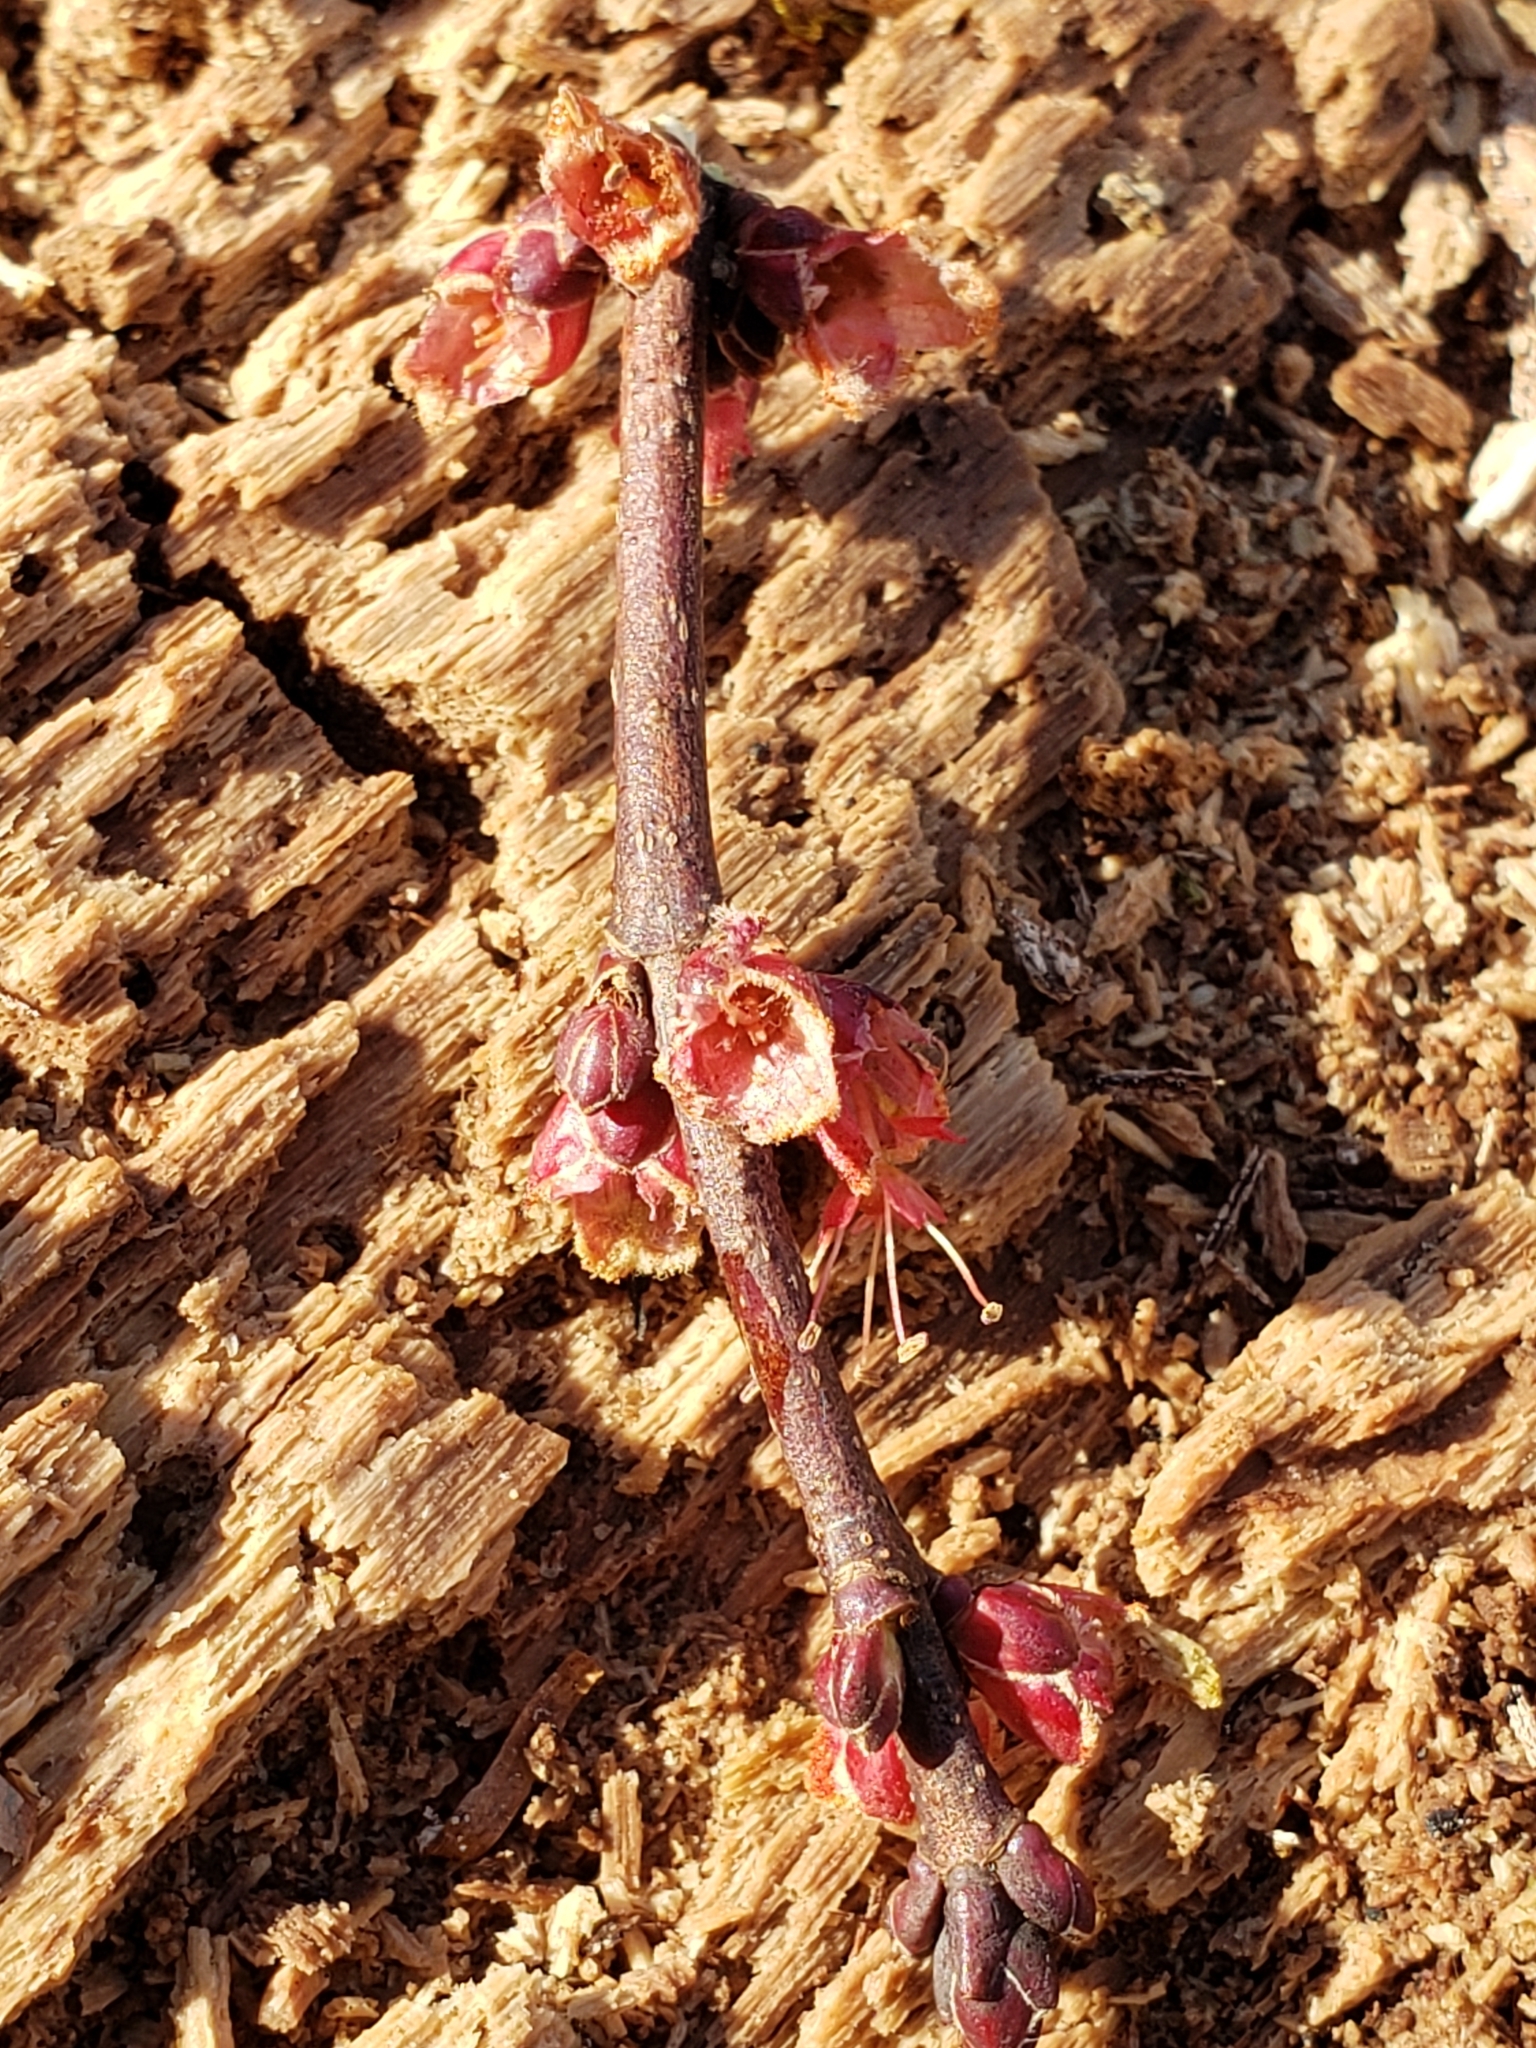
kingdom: Plantae
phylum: Tracheophyta
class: Magnoliopsida
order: Sapindales
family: Sapindaceae
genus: Acer
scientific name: Acer rubrum
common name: Red maple
